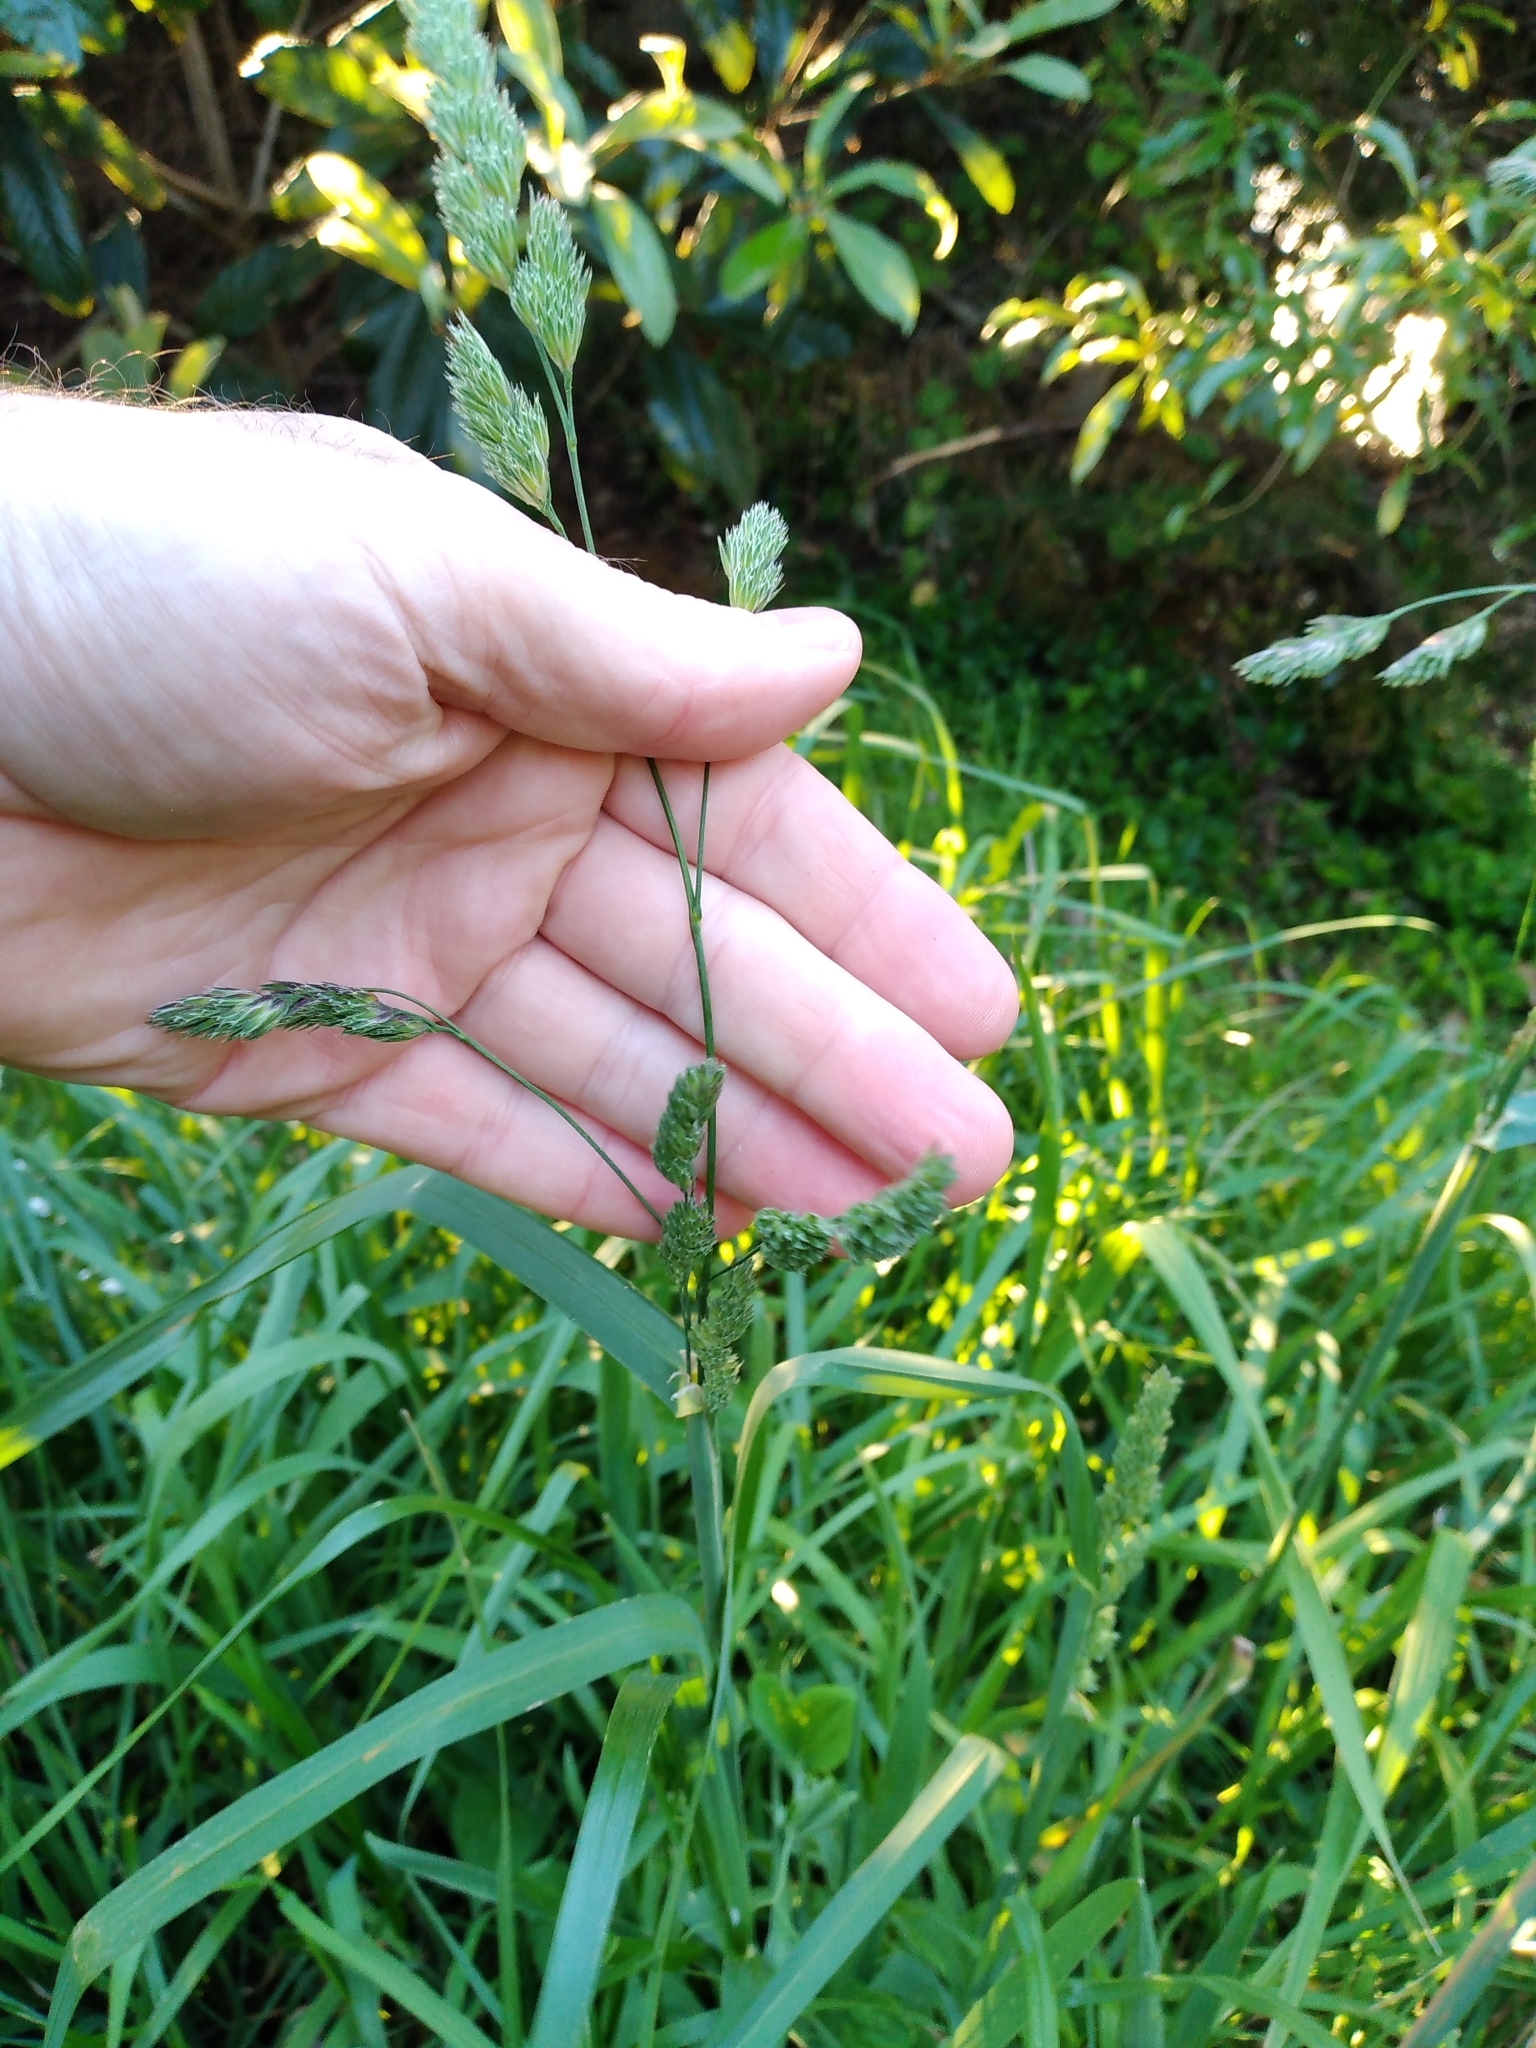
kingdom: Plantae
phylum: Tracheophyta
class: Liliopsida
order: Poales
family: Poaceae
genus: Dactylis
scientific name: Dactylis glomerata
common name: Orchardgrass
